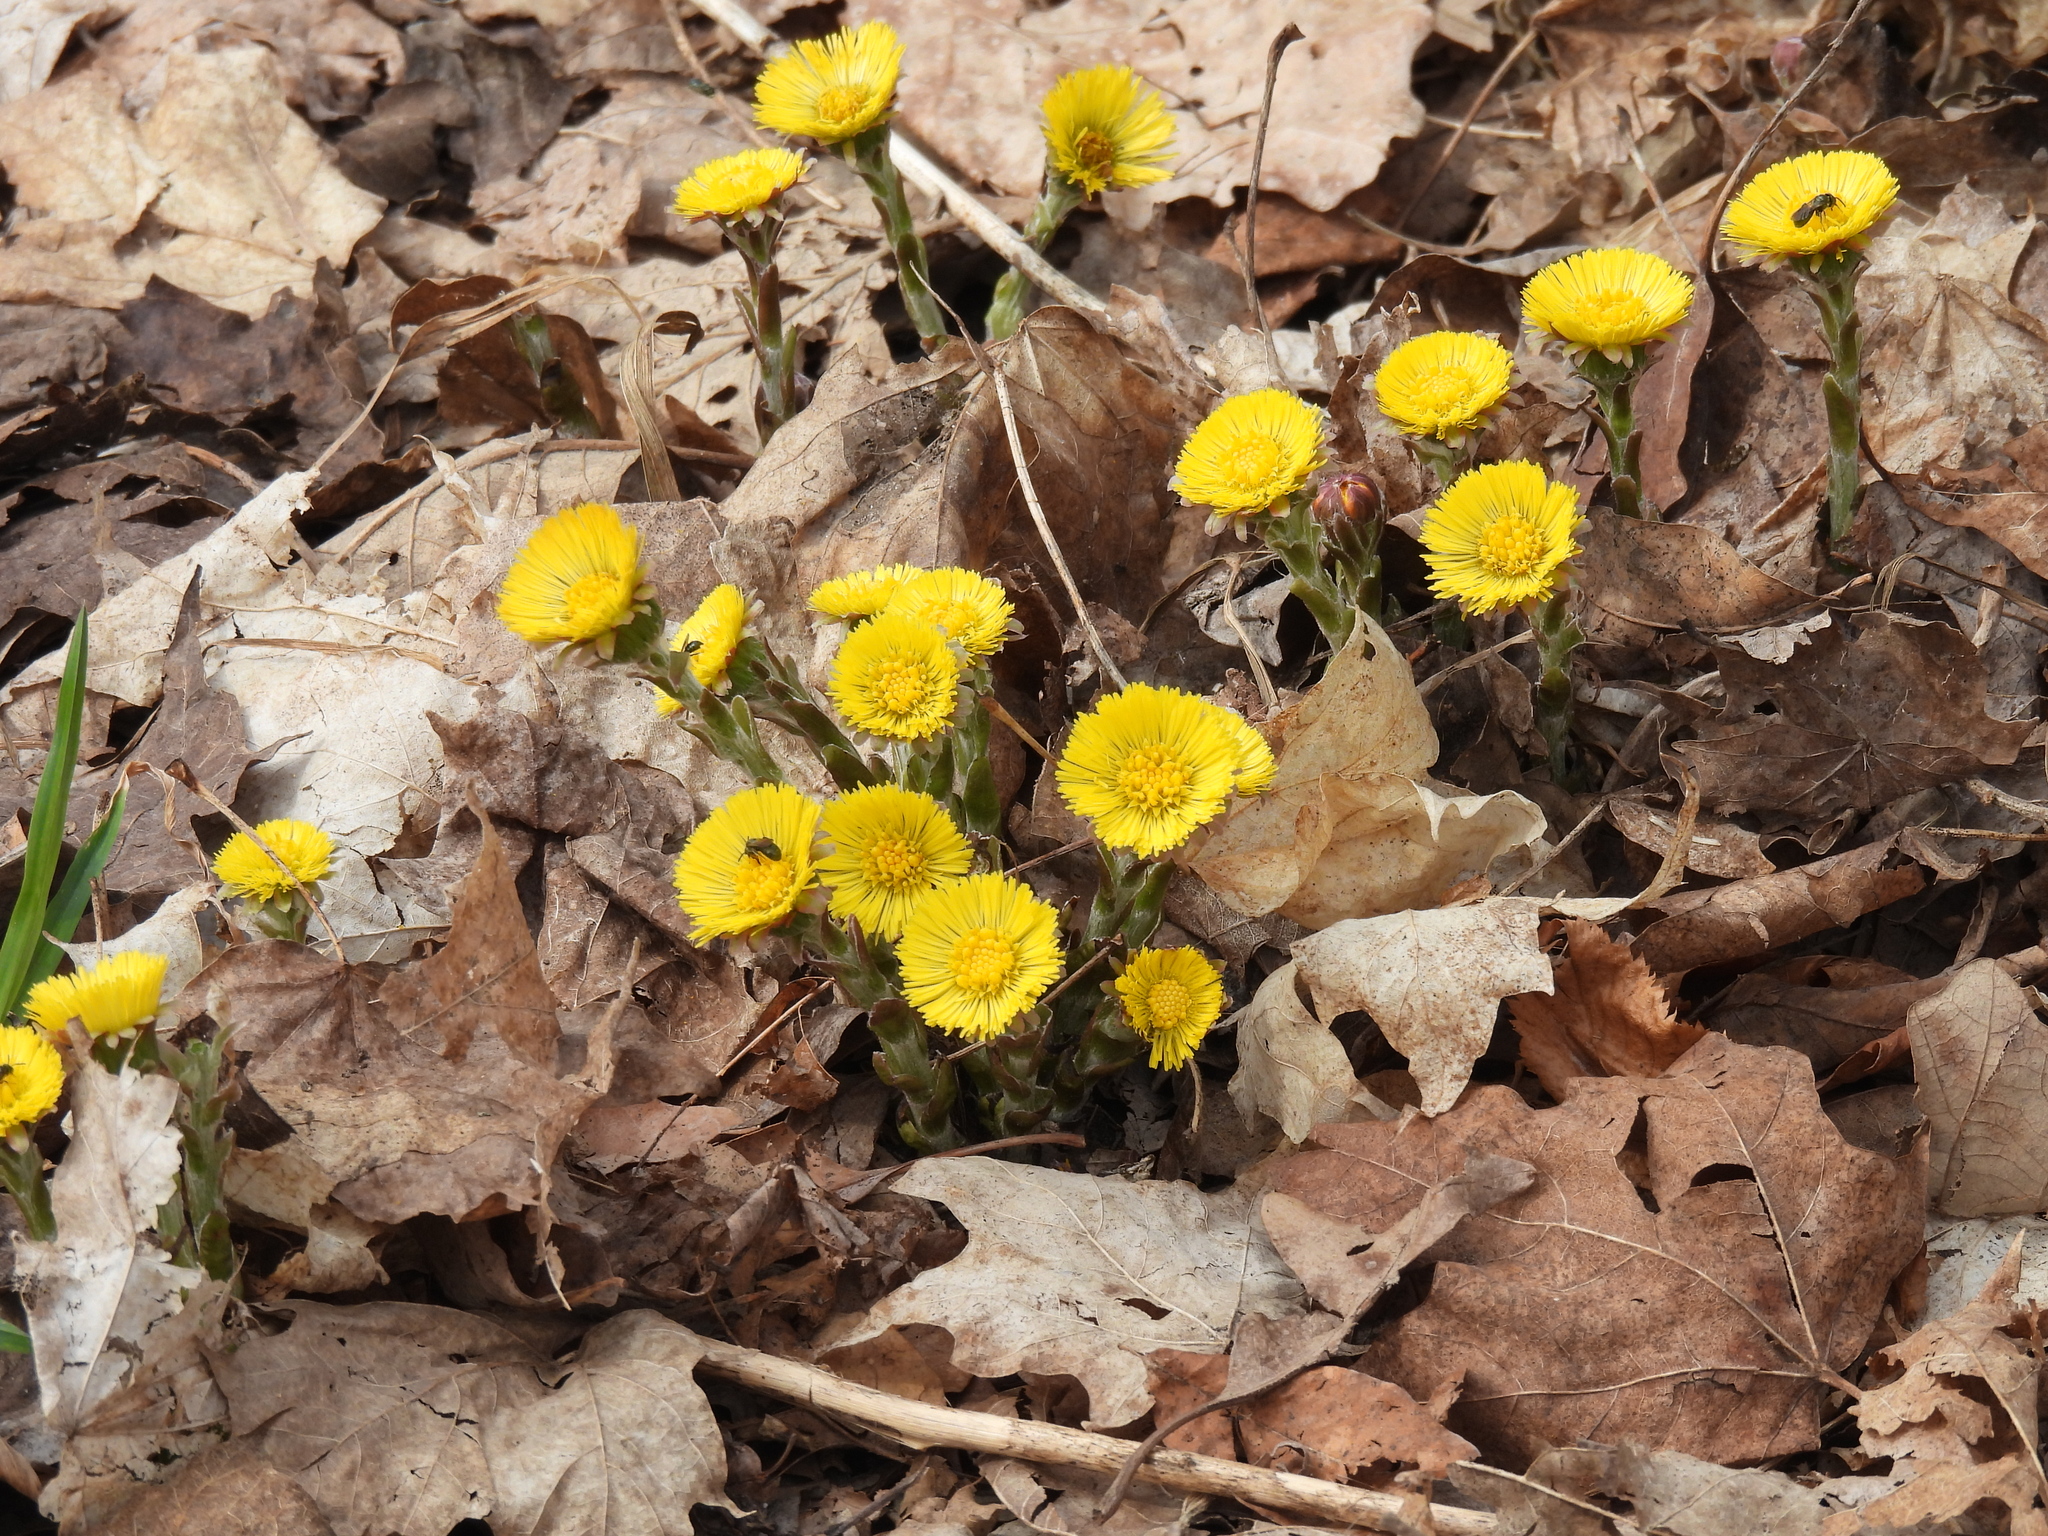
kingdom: Plantae
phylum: Tracheophyta
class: Magnoliopsida
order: Asterales
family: Asteraceae
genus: Tussilago
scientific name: Tussilago farfara
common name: Coltsfoot
